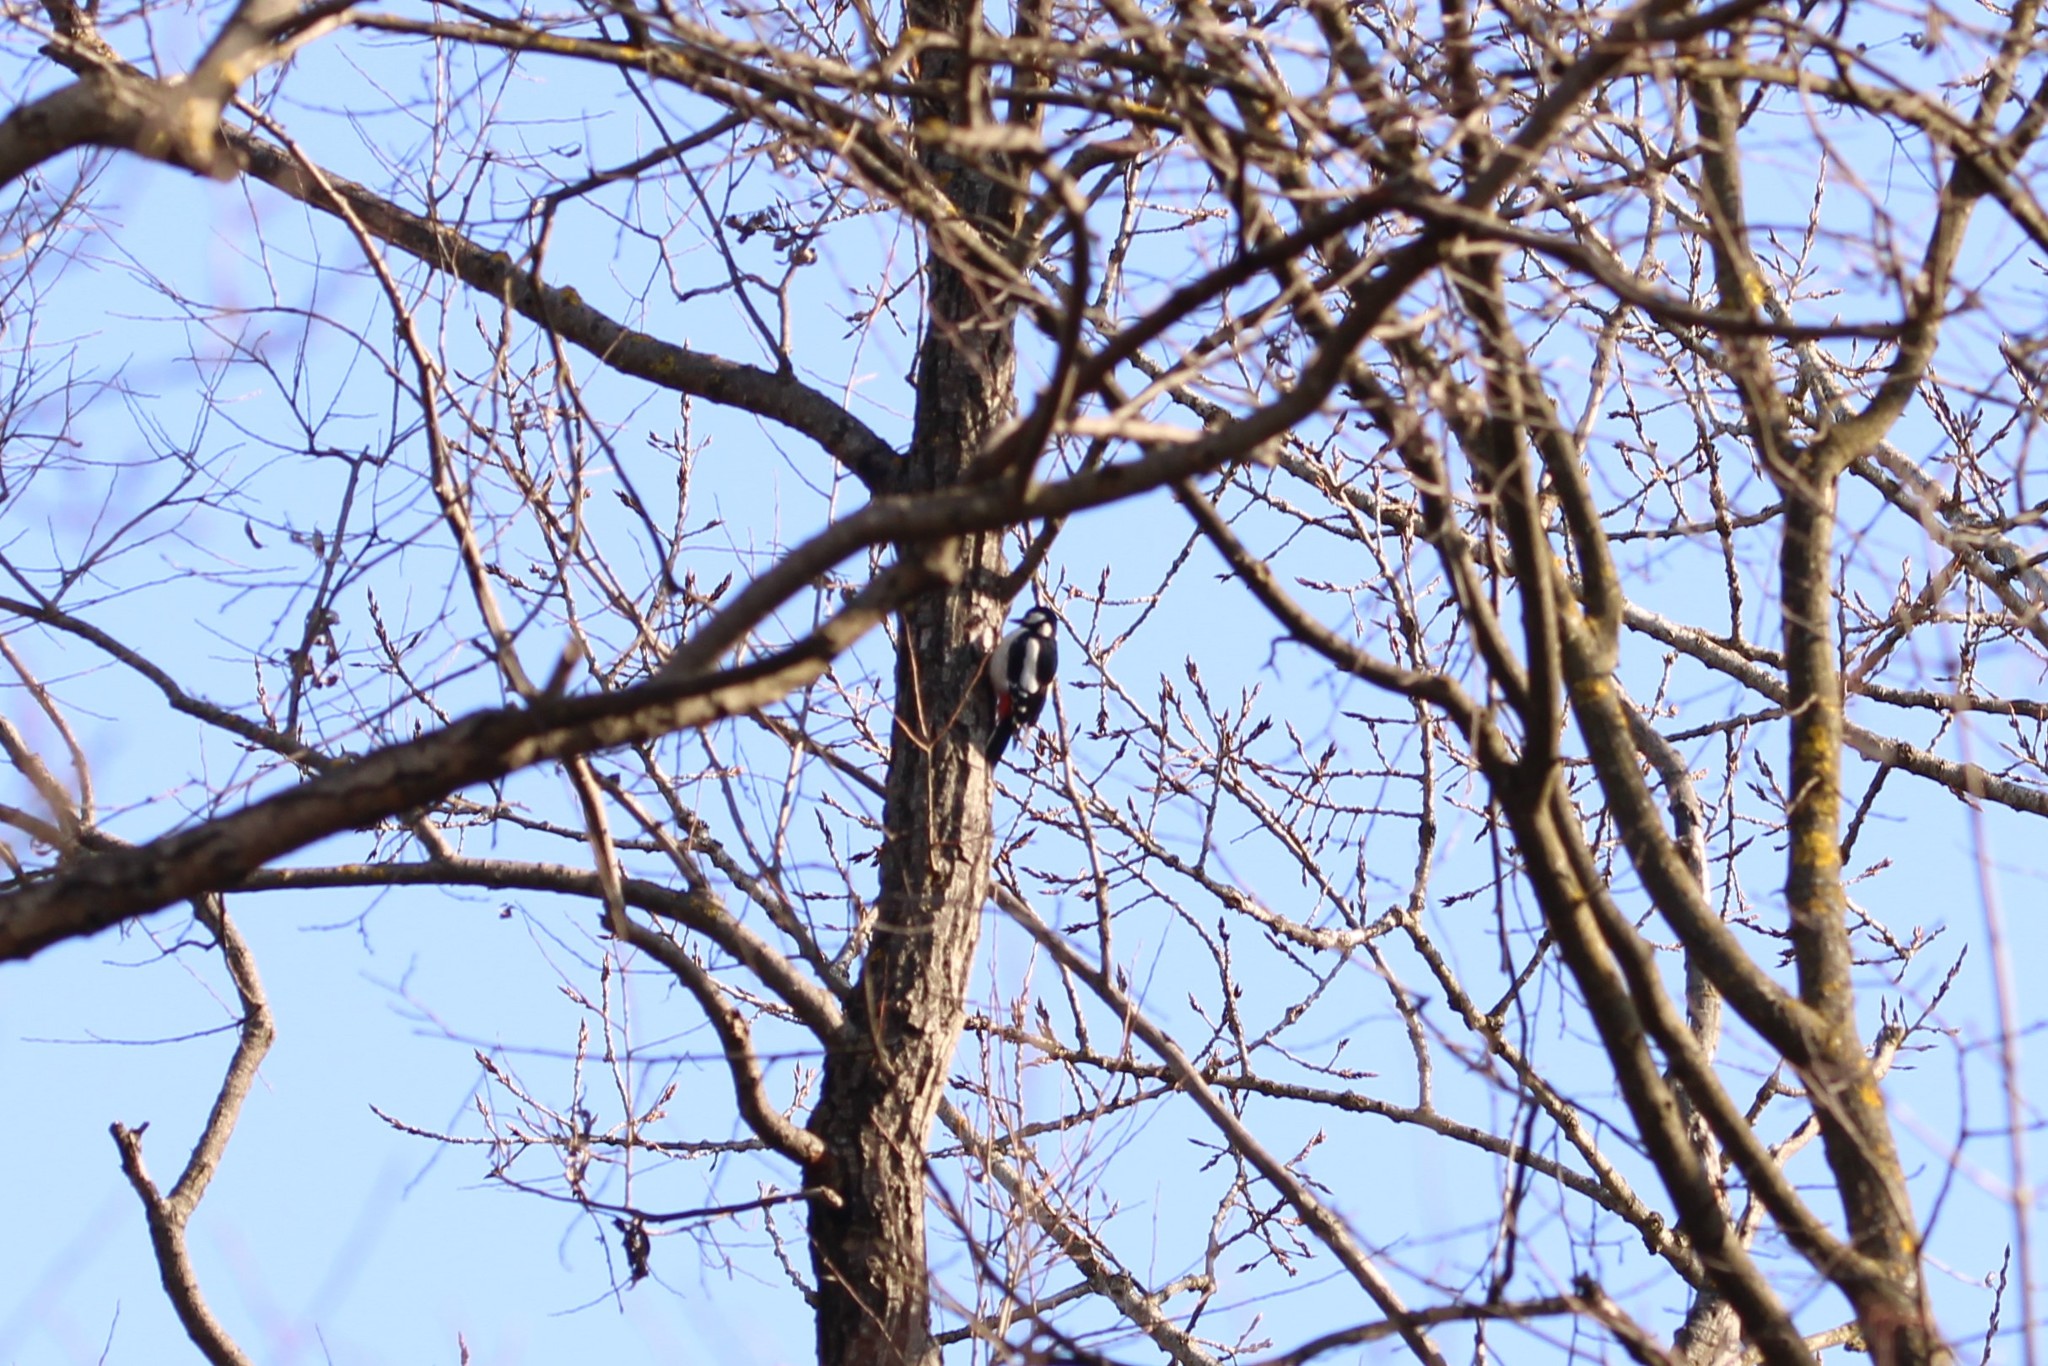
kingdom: Animalia
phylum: Chordata
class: Aves
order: Piciformes
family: Picidae
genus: Dendrocopos
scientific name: Dendrocopos major
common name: Great spotted woodpecker
